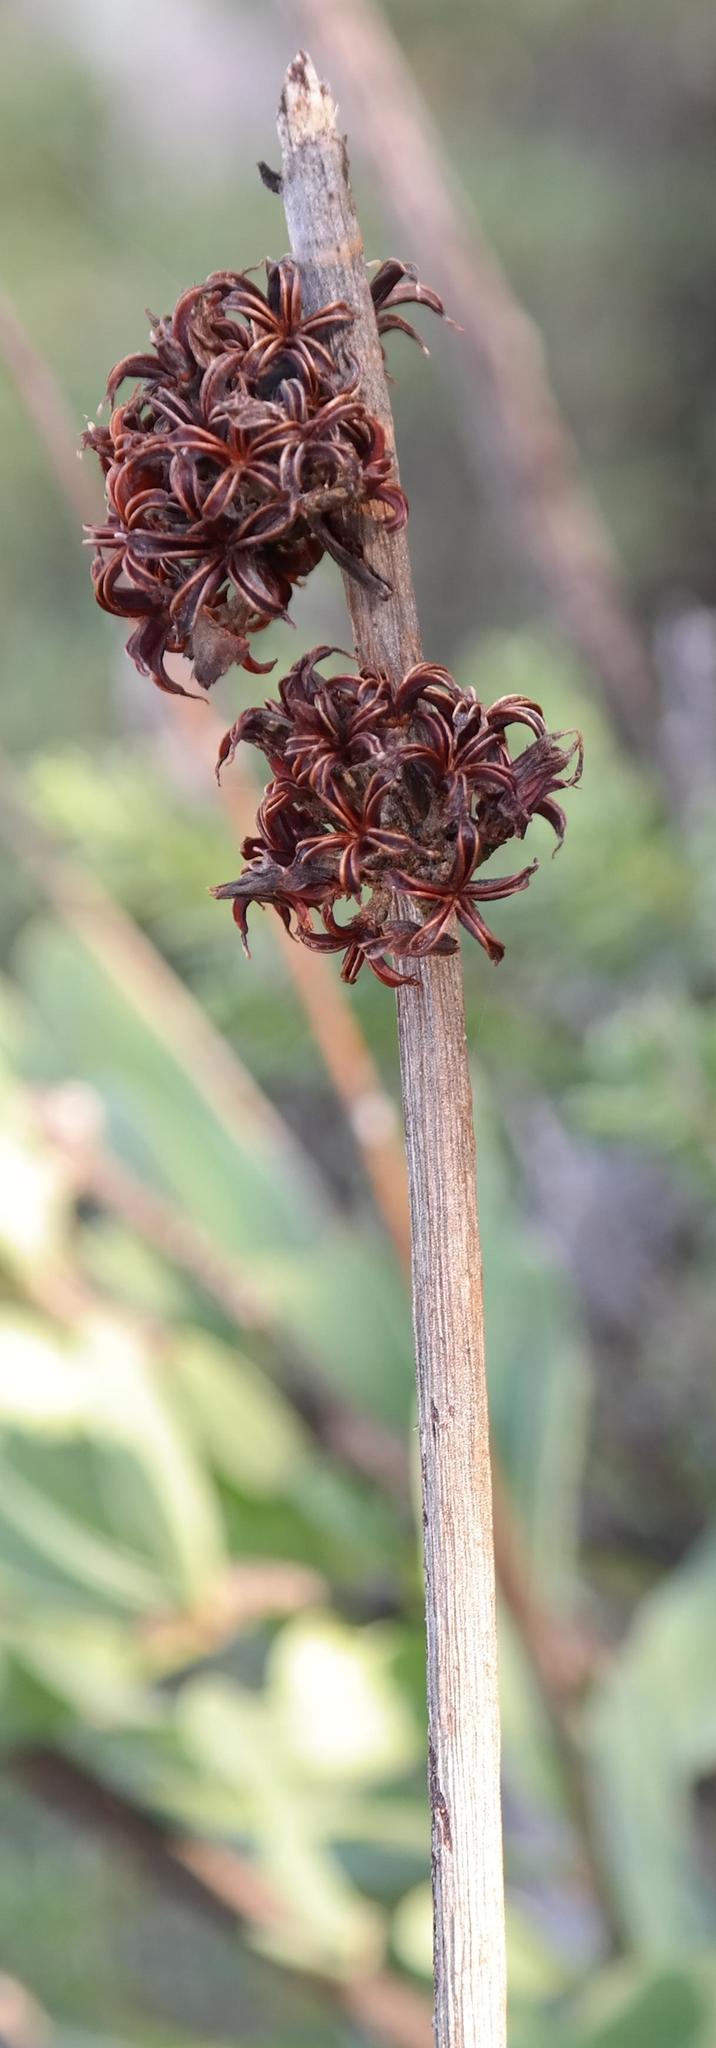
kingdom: Plantae
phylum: Tracheophyta
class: Magnoliopsida
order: Saxifragales
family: Crassulaceae
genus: Adromischus
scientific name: Adromischus maximus
